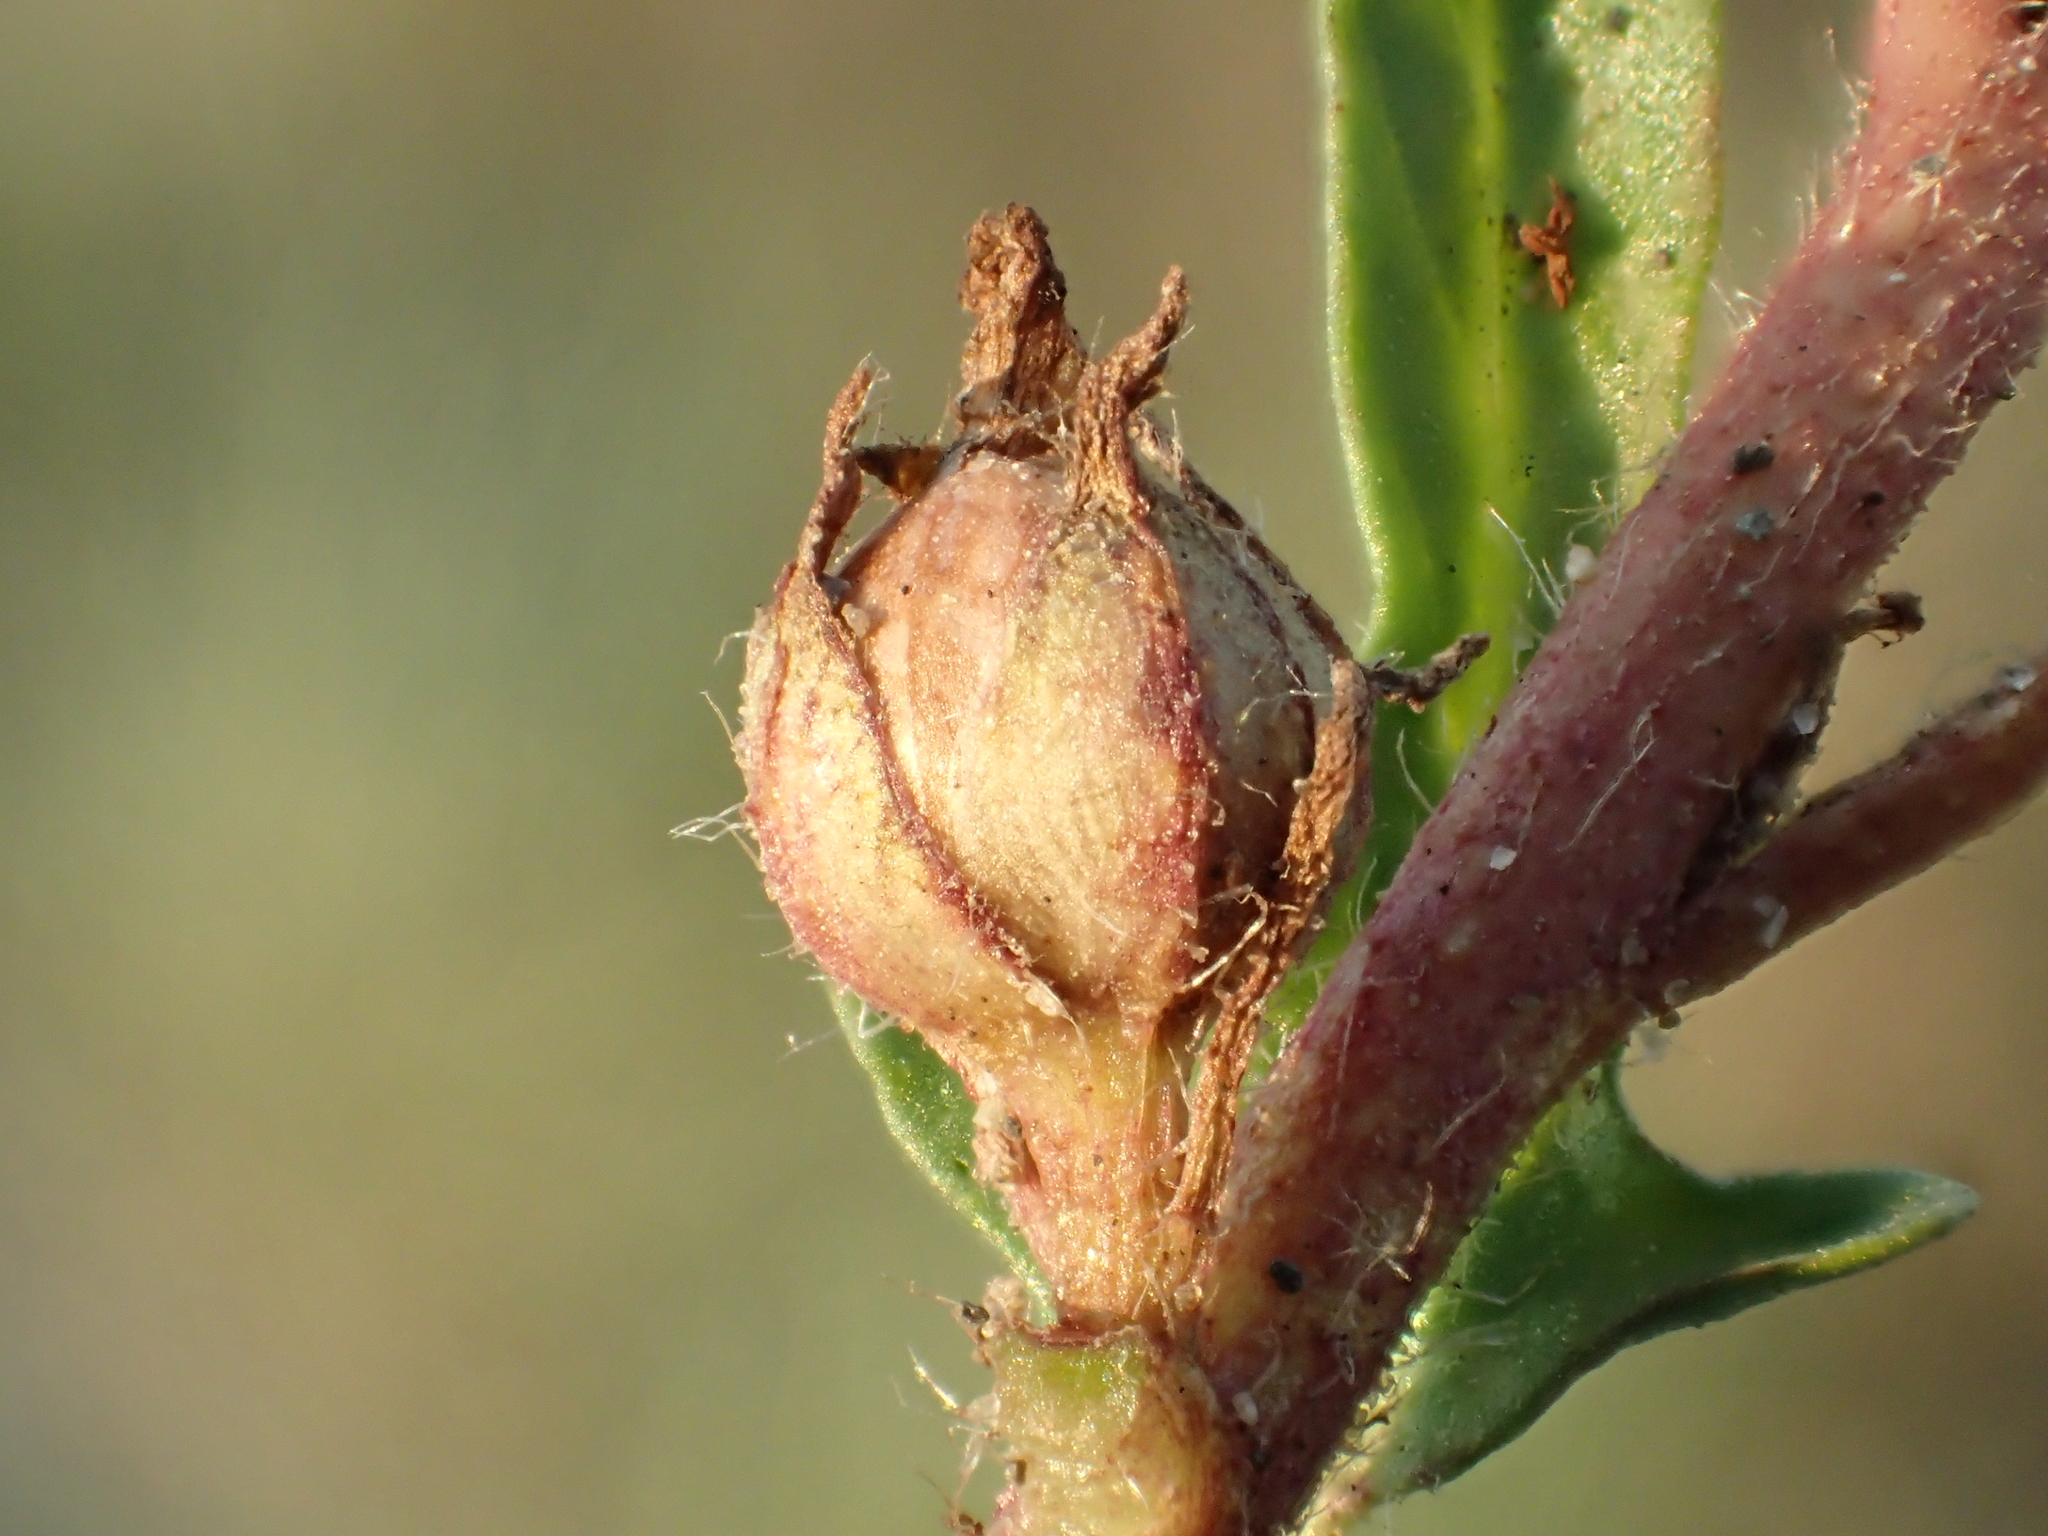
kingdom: Plantae
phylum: Tracheophyta
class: Magnoliopsida
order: Solanales
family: Convolvulaceae
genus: Ipomoea
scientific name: Ipomoea polymorpha
